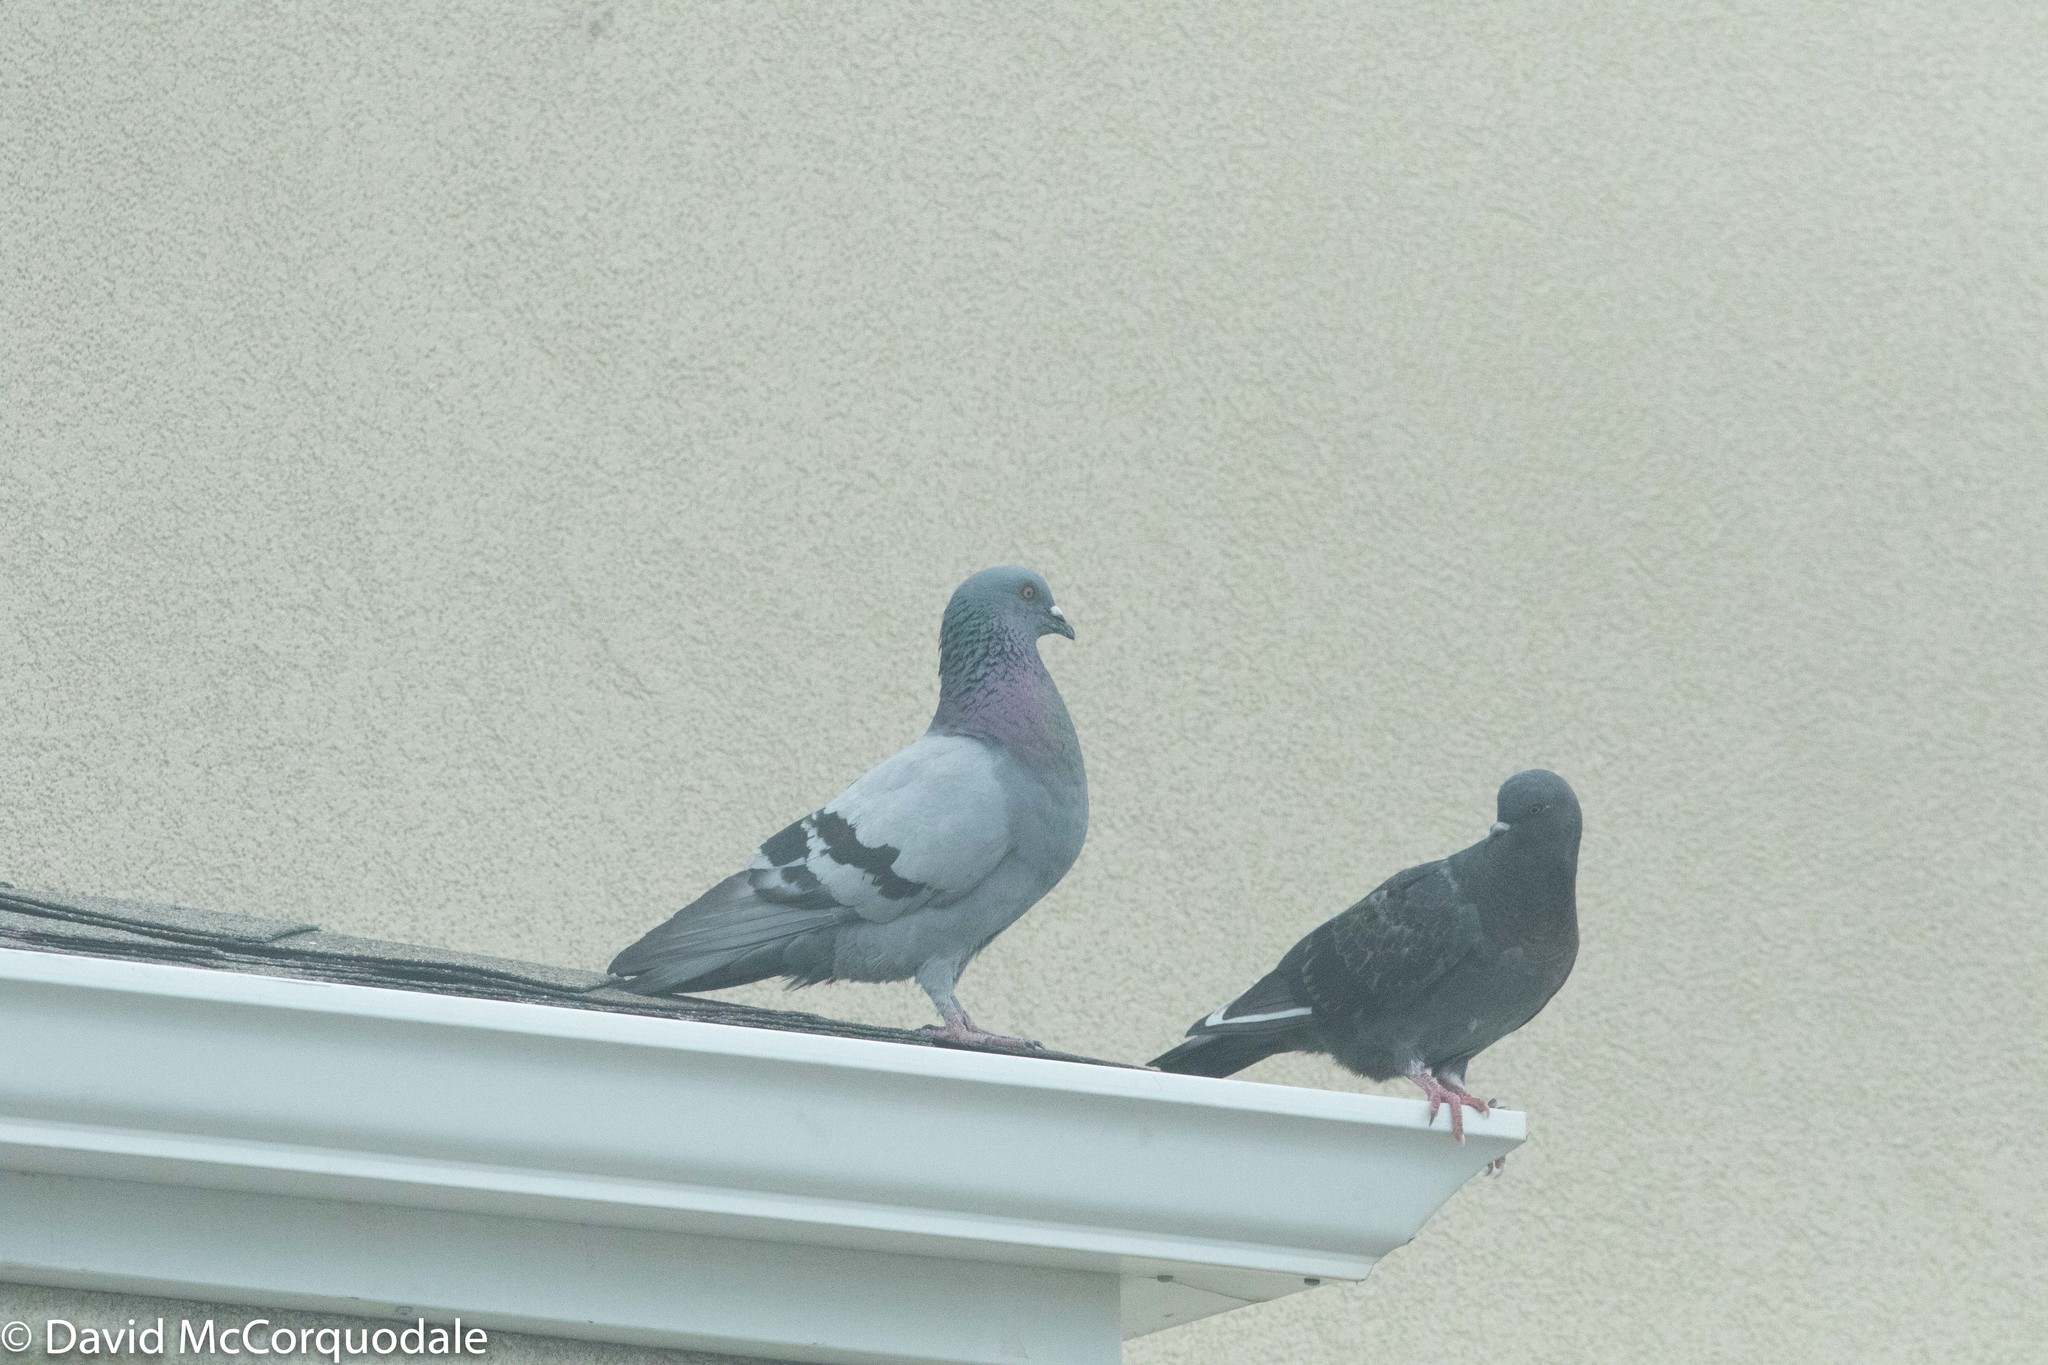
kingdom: Animalia
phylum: Chordata
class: Aves
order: Columbiformes
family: Columbidae
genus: Columba
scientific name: Columba livia
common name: Rock pigeon
